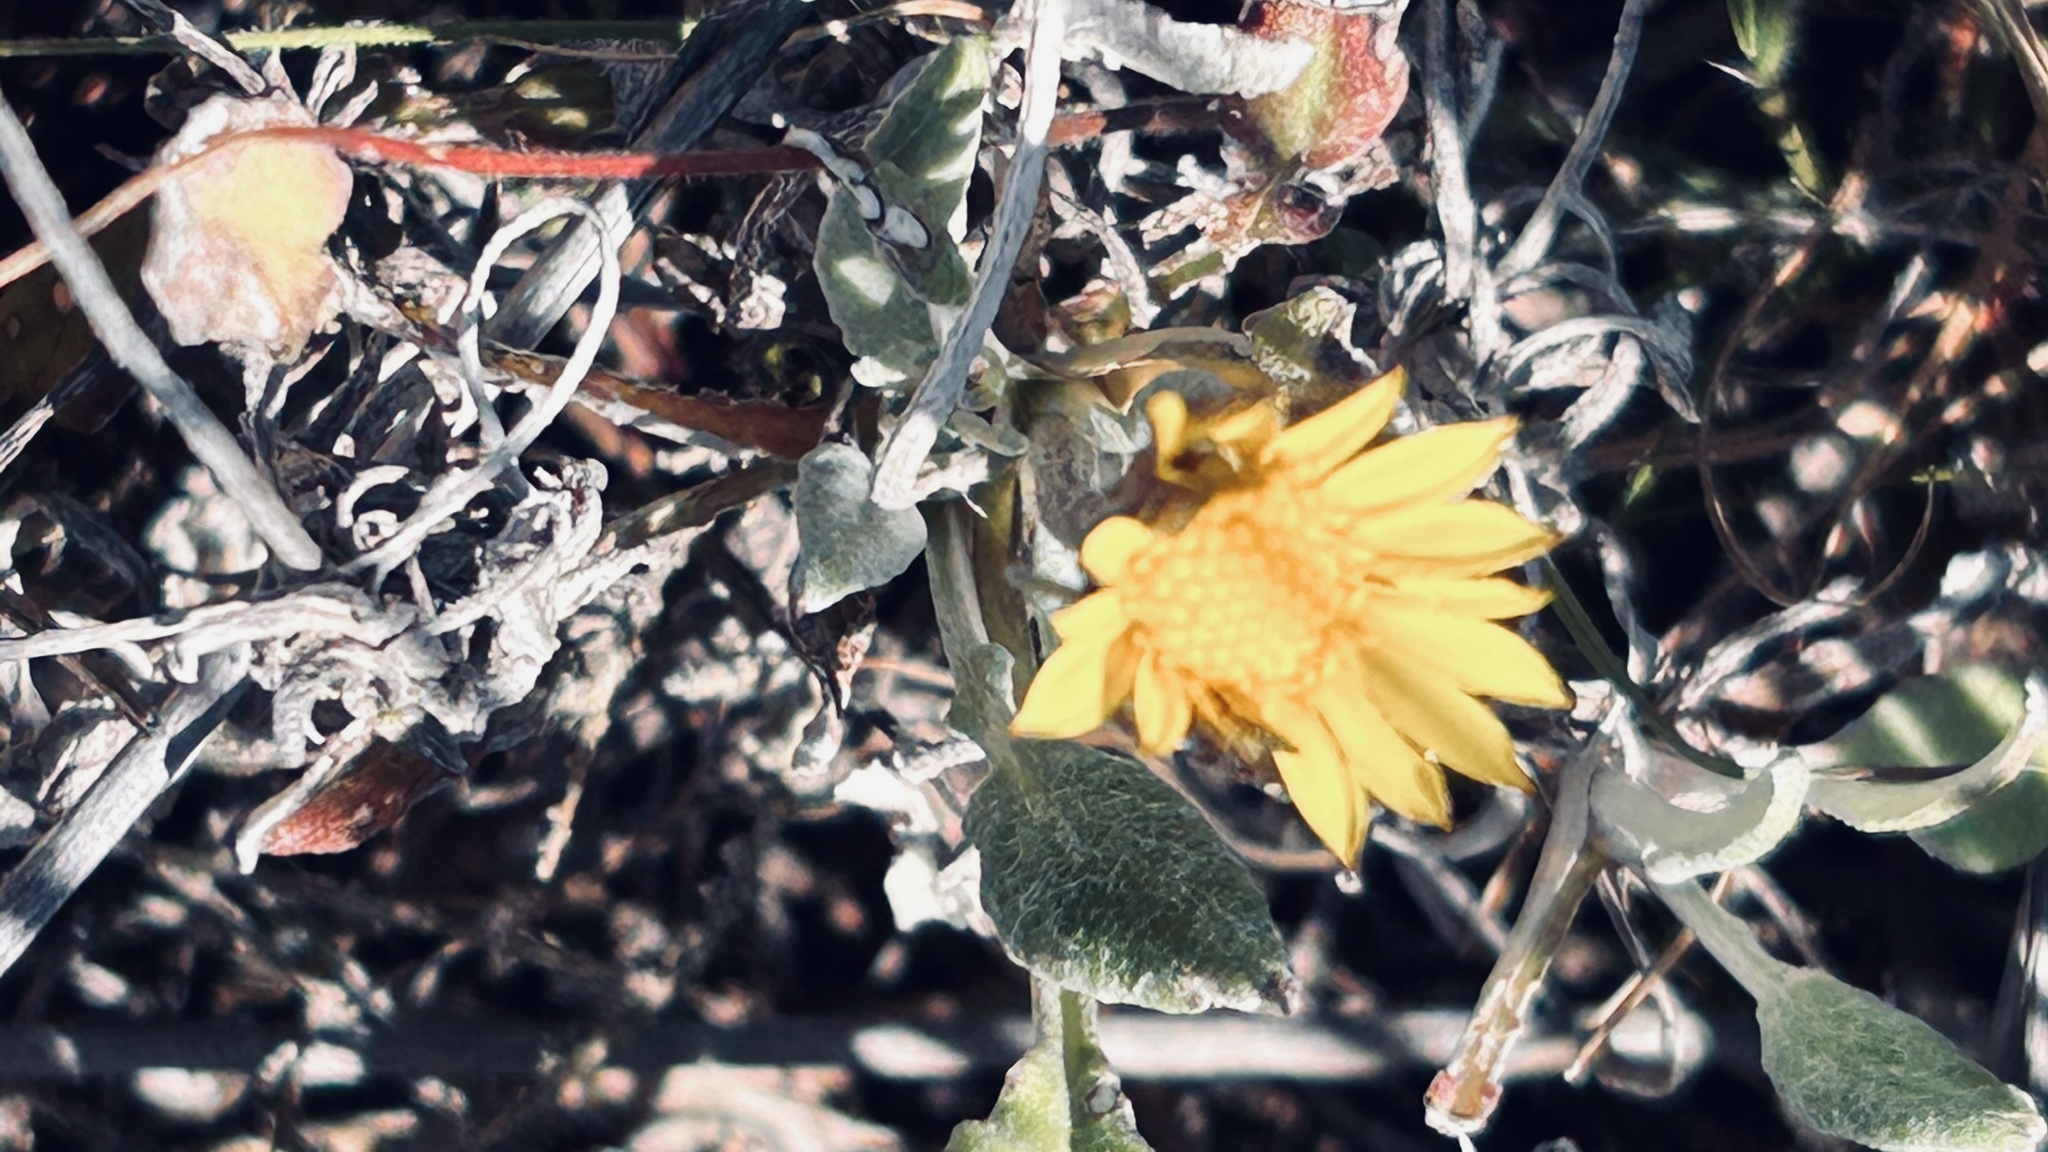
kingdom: Plantae
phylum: Tracheophyta
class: Magnoliopsida
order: Asterales
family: Asteraceae
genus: Osteospermum
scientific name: Osteospermum incanum
